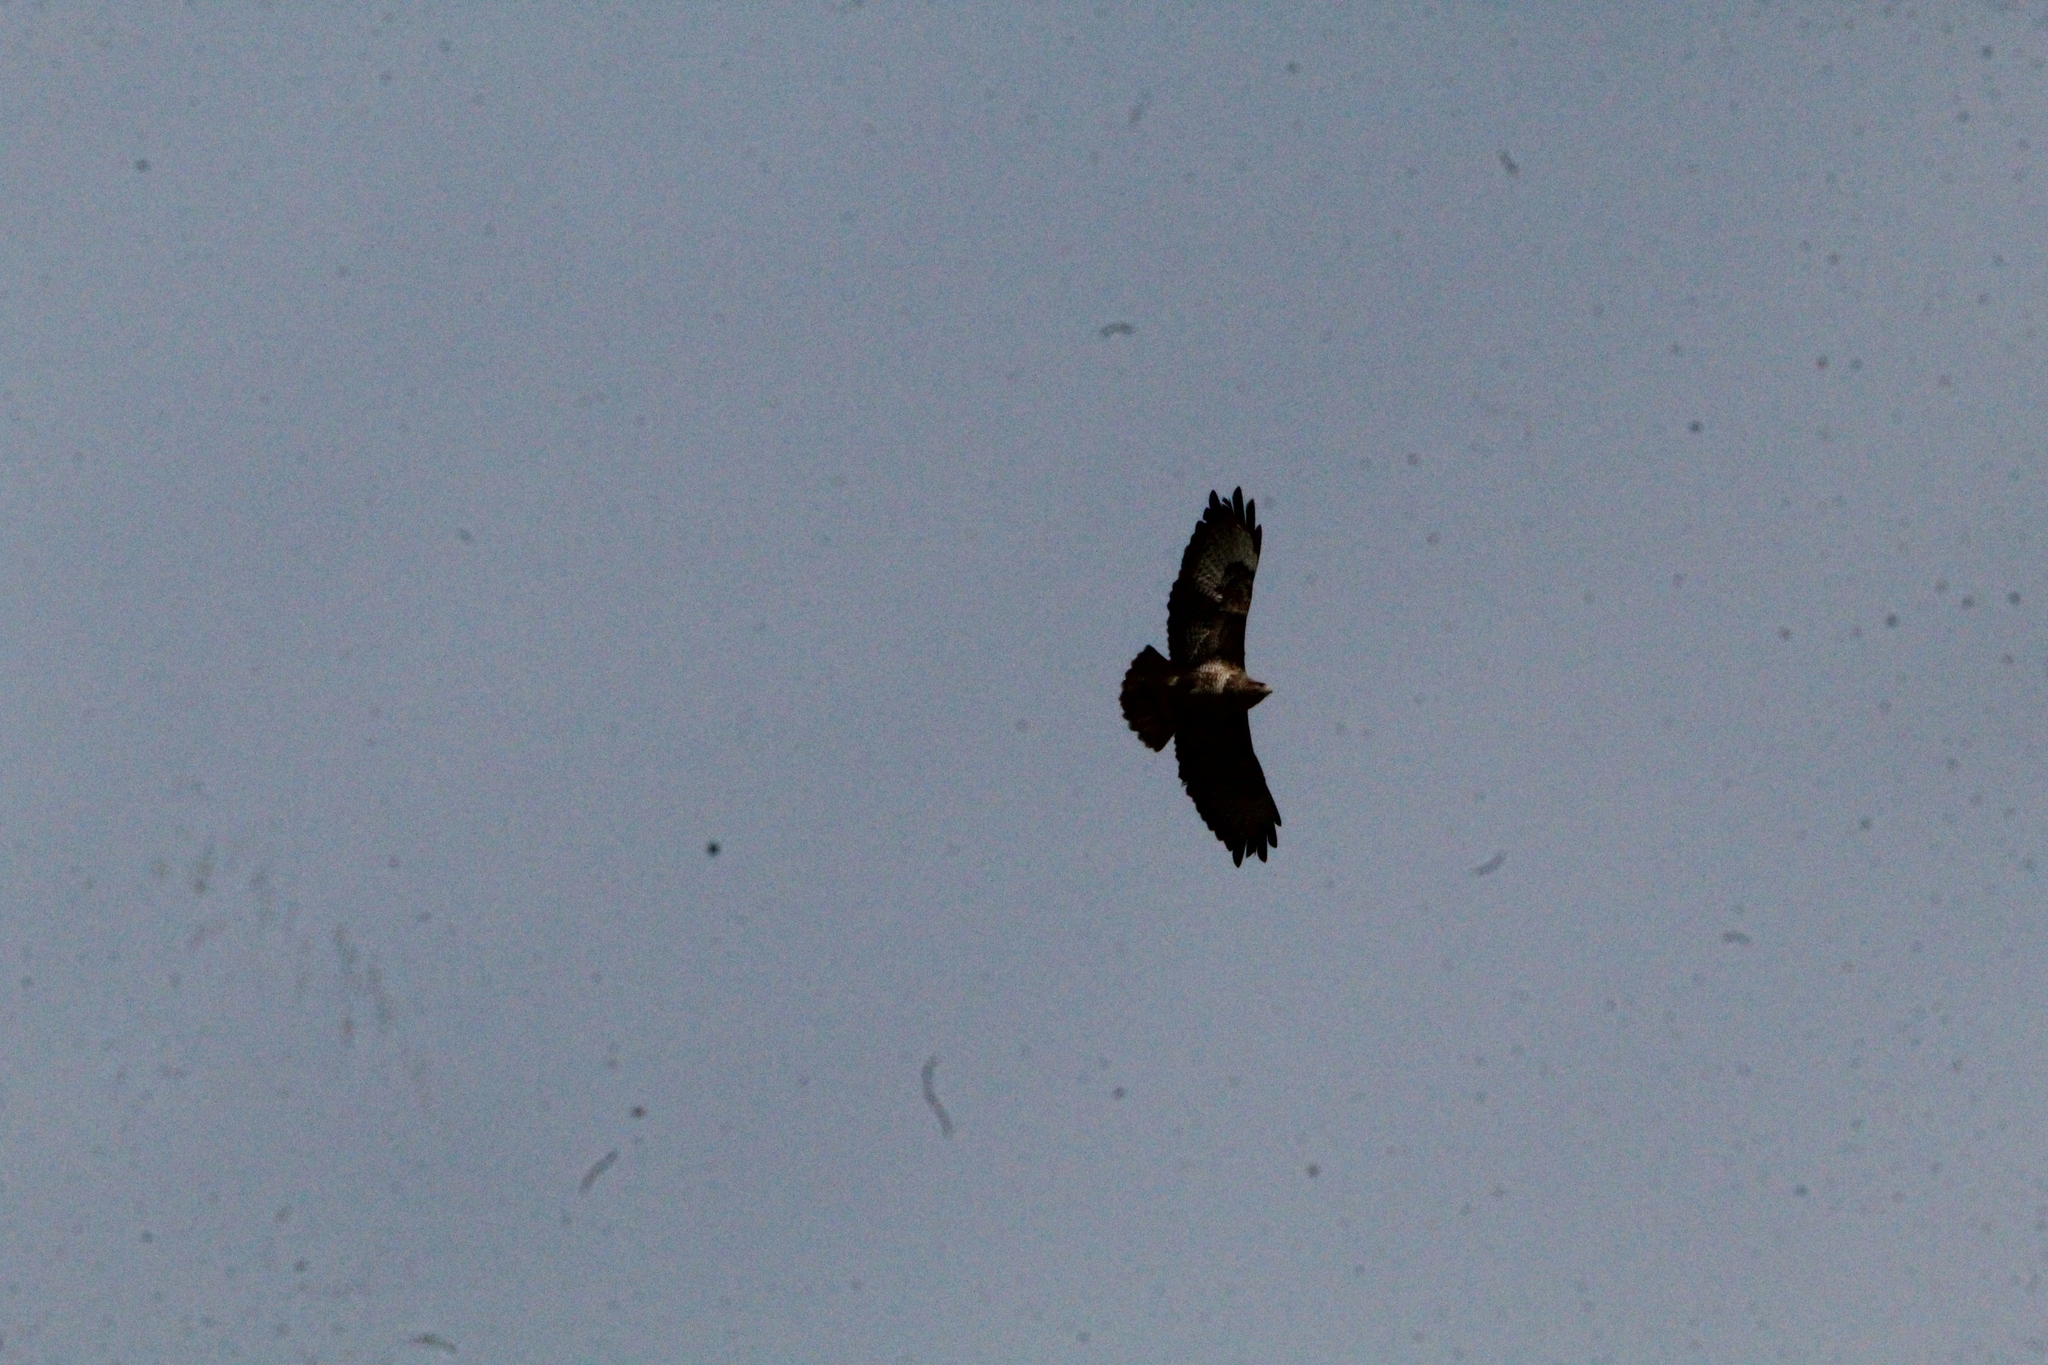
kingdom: Animalia
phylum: Chordata
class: Aves
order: Accipitriformes
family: Accipitridae
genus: Buteo
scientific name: Buteo buteo
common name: Common buzzard
